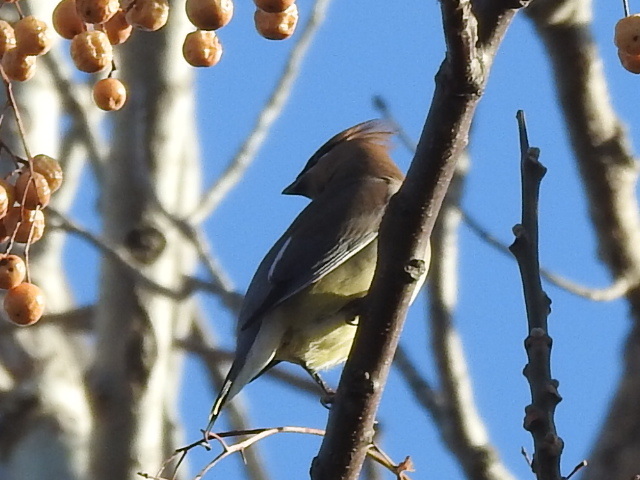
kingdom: Animalia
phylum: Chordata
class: Aves
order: Passeriformes
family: Bombycillidae
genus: Bombycilla
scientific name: Bombycilla cedrorum
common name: Cedar waxwing
